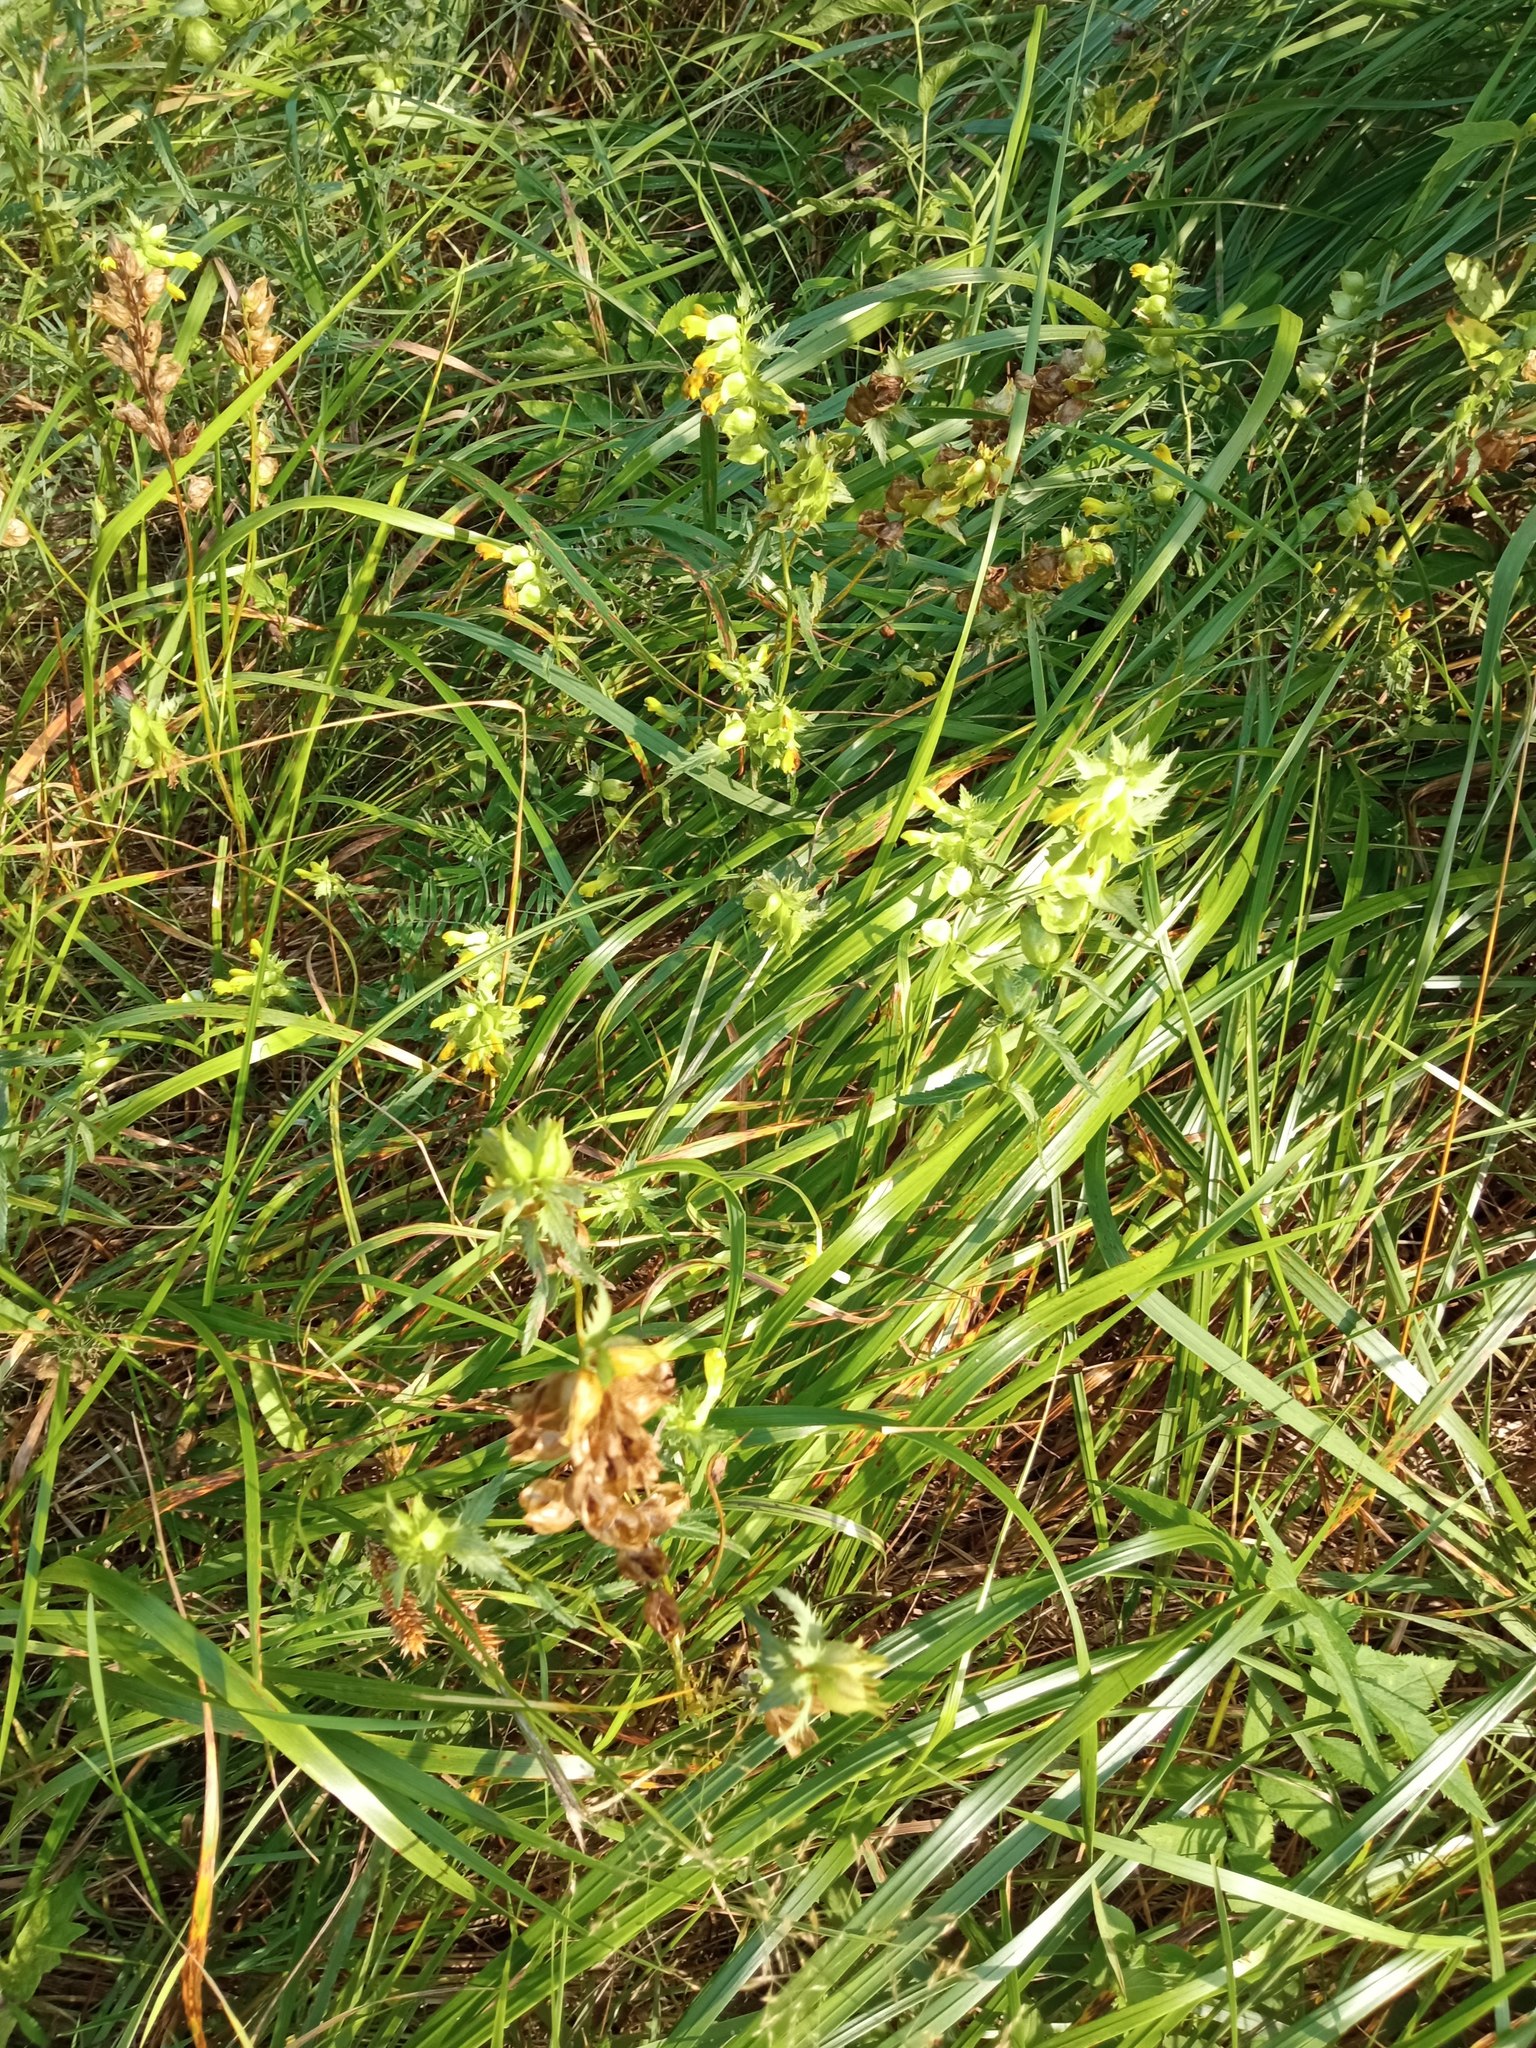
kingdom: Plantae
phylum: Tracheophyta
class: Magnoliopsida
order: Lamiales
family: Orobanchaceae
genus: Rhinanthus
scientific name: Rhinanthus serotinus
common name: Late-flowering yellow rattle
